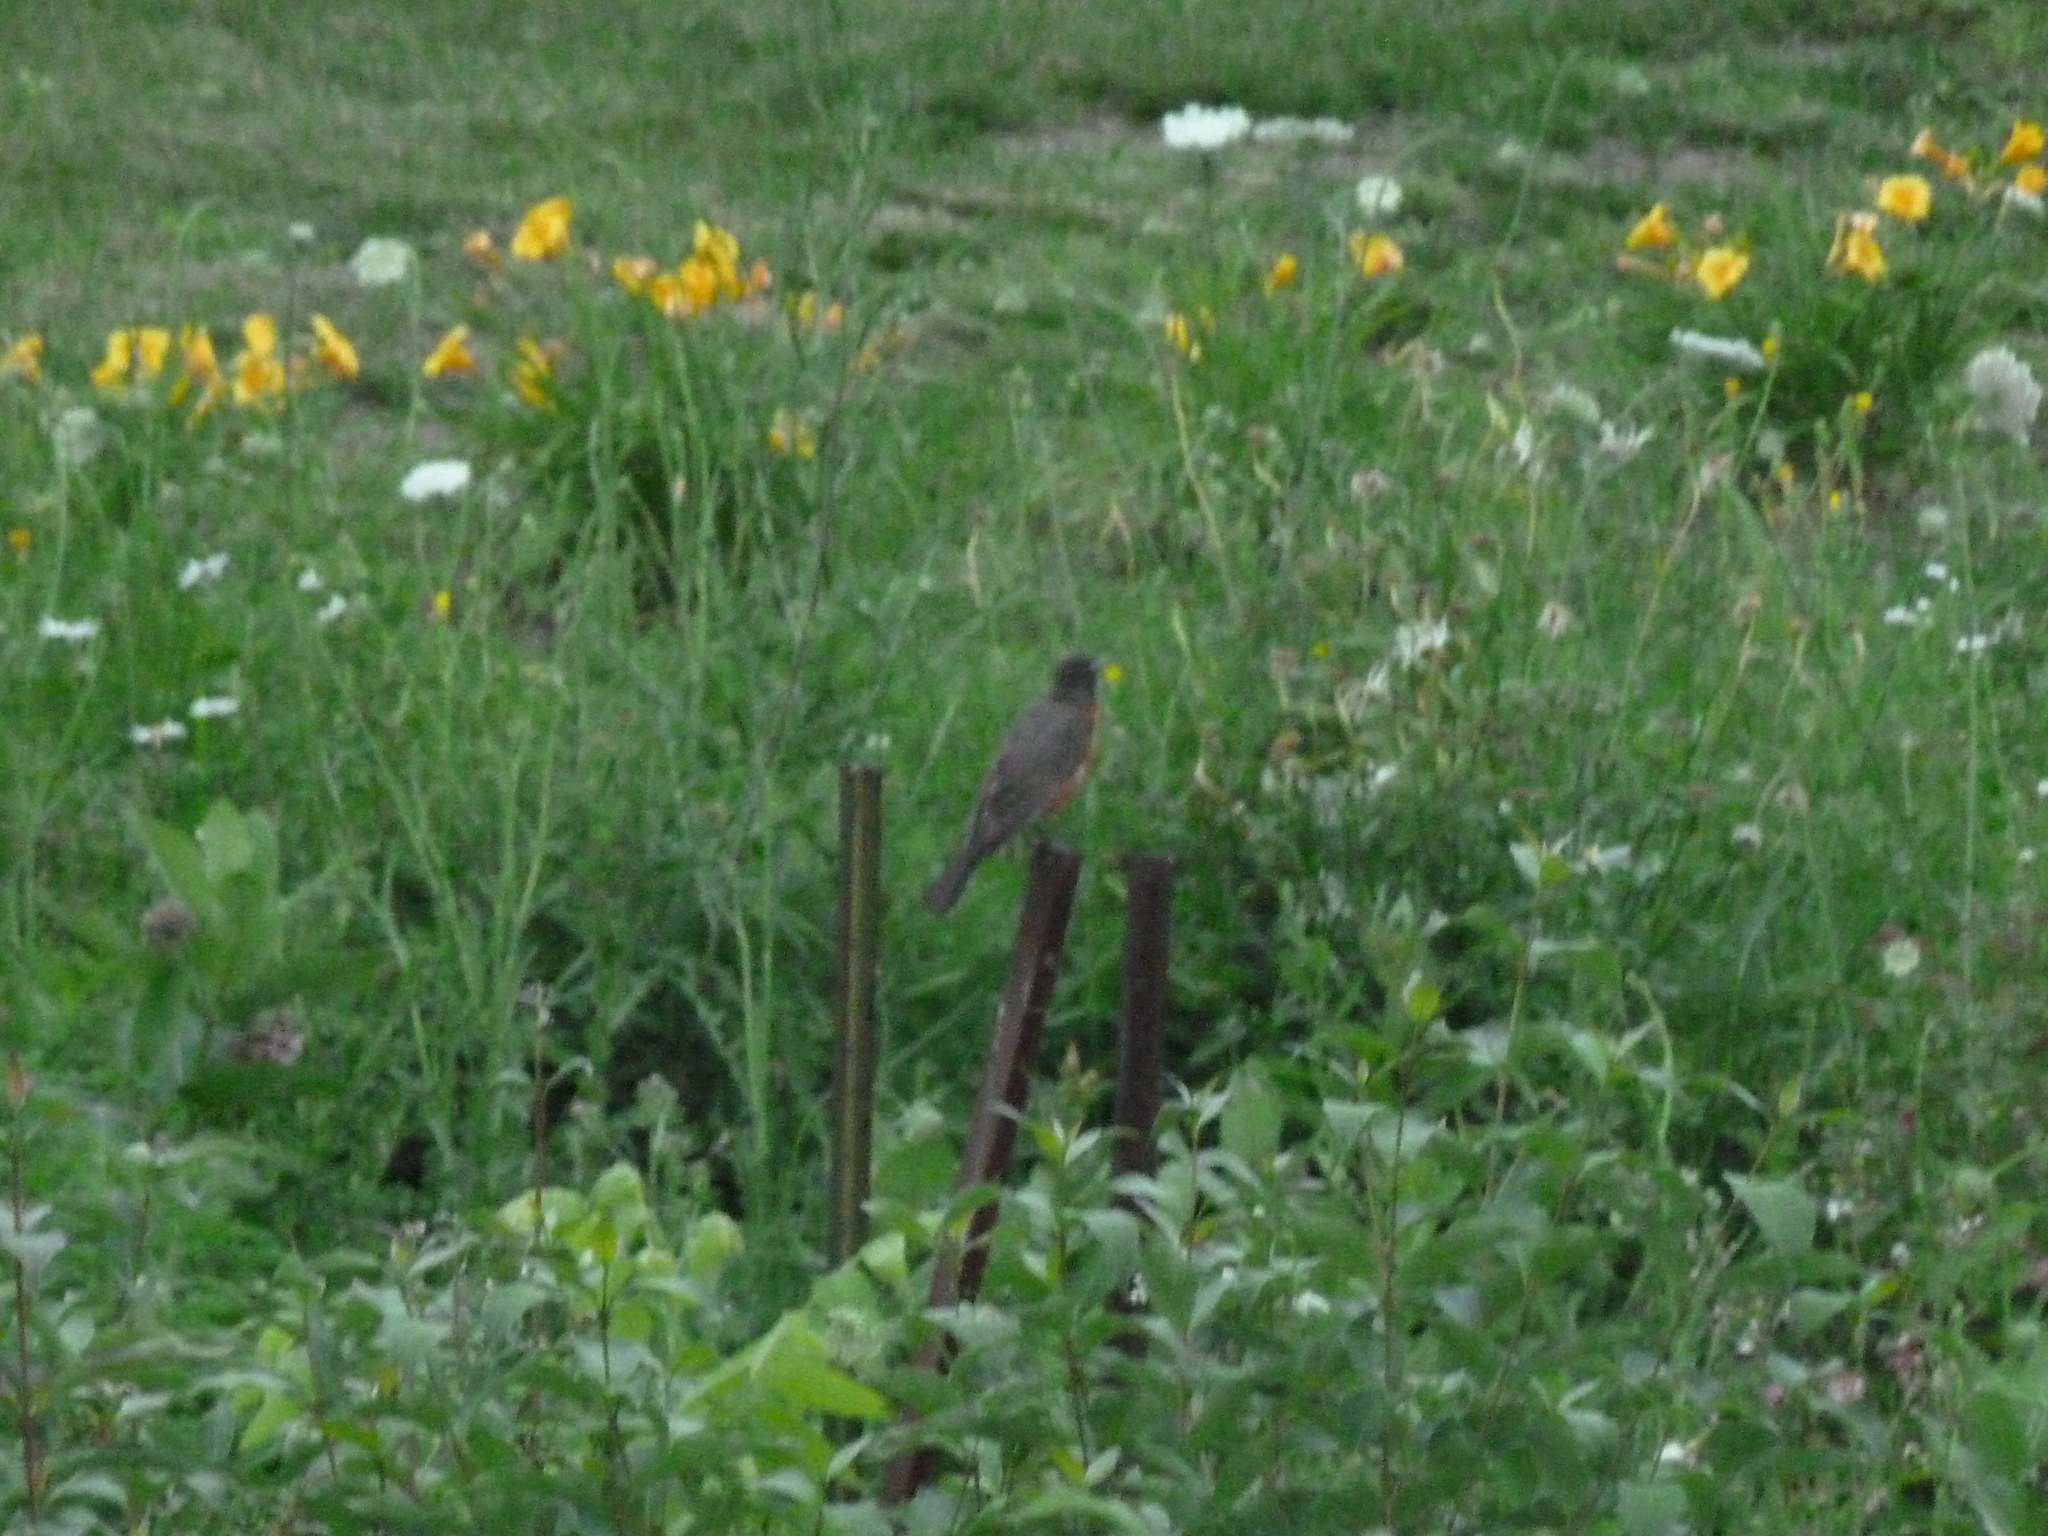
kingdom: Animalia
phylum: Chordata
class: Aves
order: Passeriformes
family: Turdidae
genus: Turdus
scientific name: Turdus migratorius
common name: American robin
